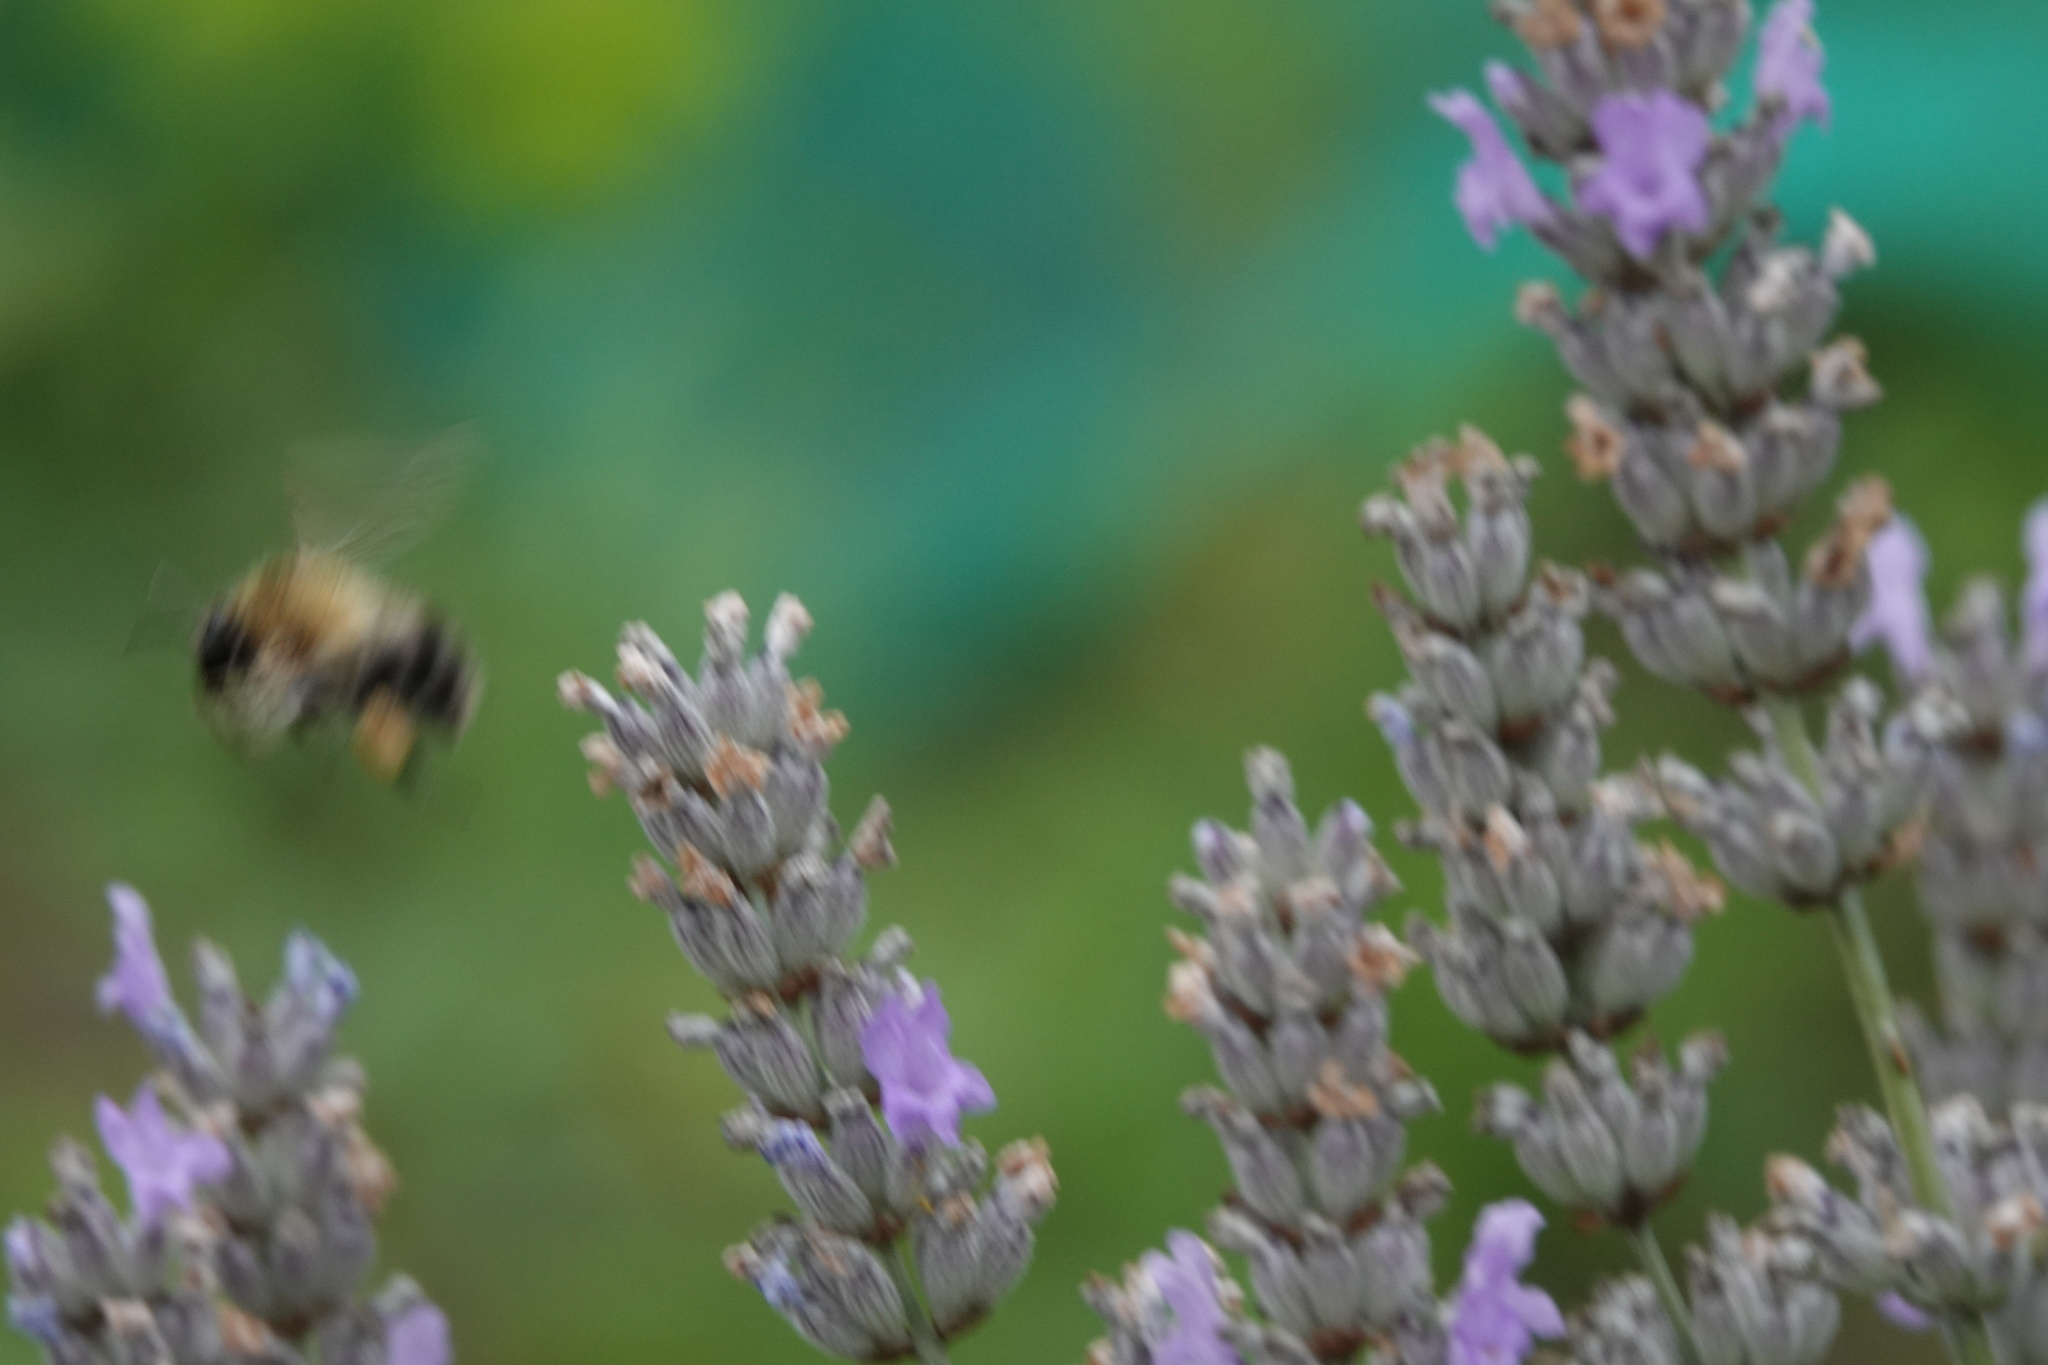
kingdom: Animalia
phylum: Arthropoda
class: Insecta
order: Hymenoptera
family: Apidae
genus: Bombus
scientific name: Bombus pascuorum
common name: Common carder bee
